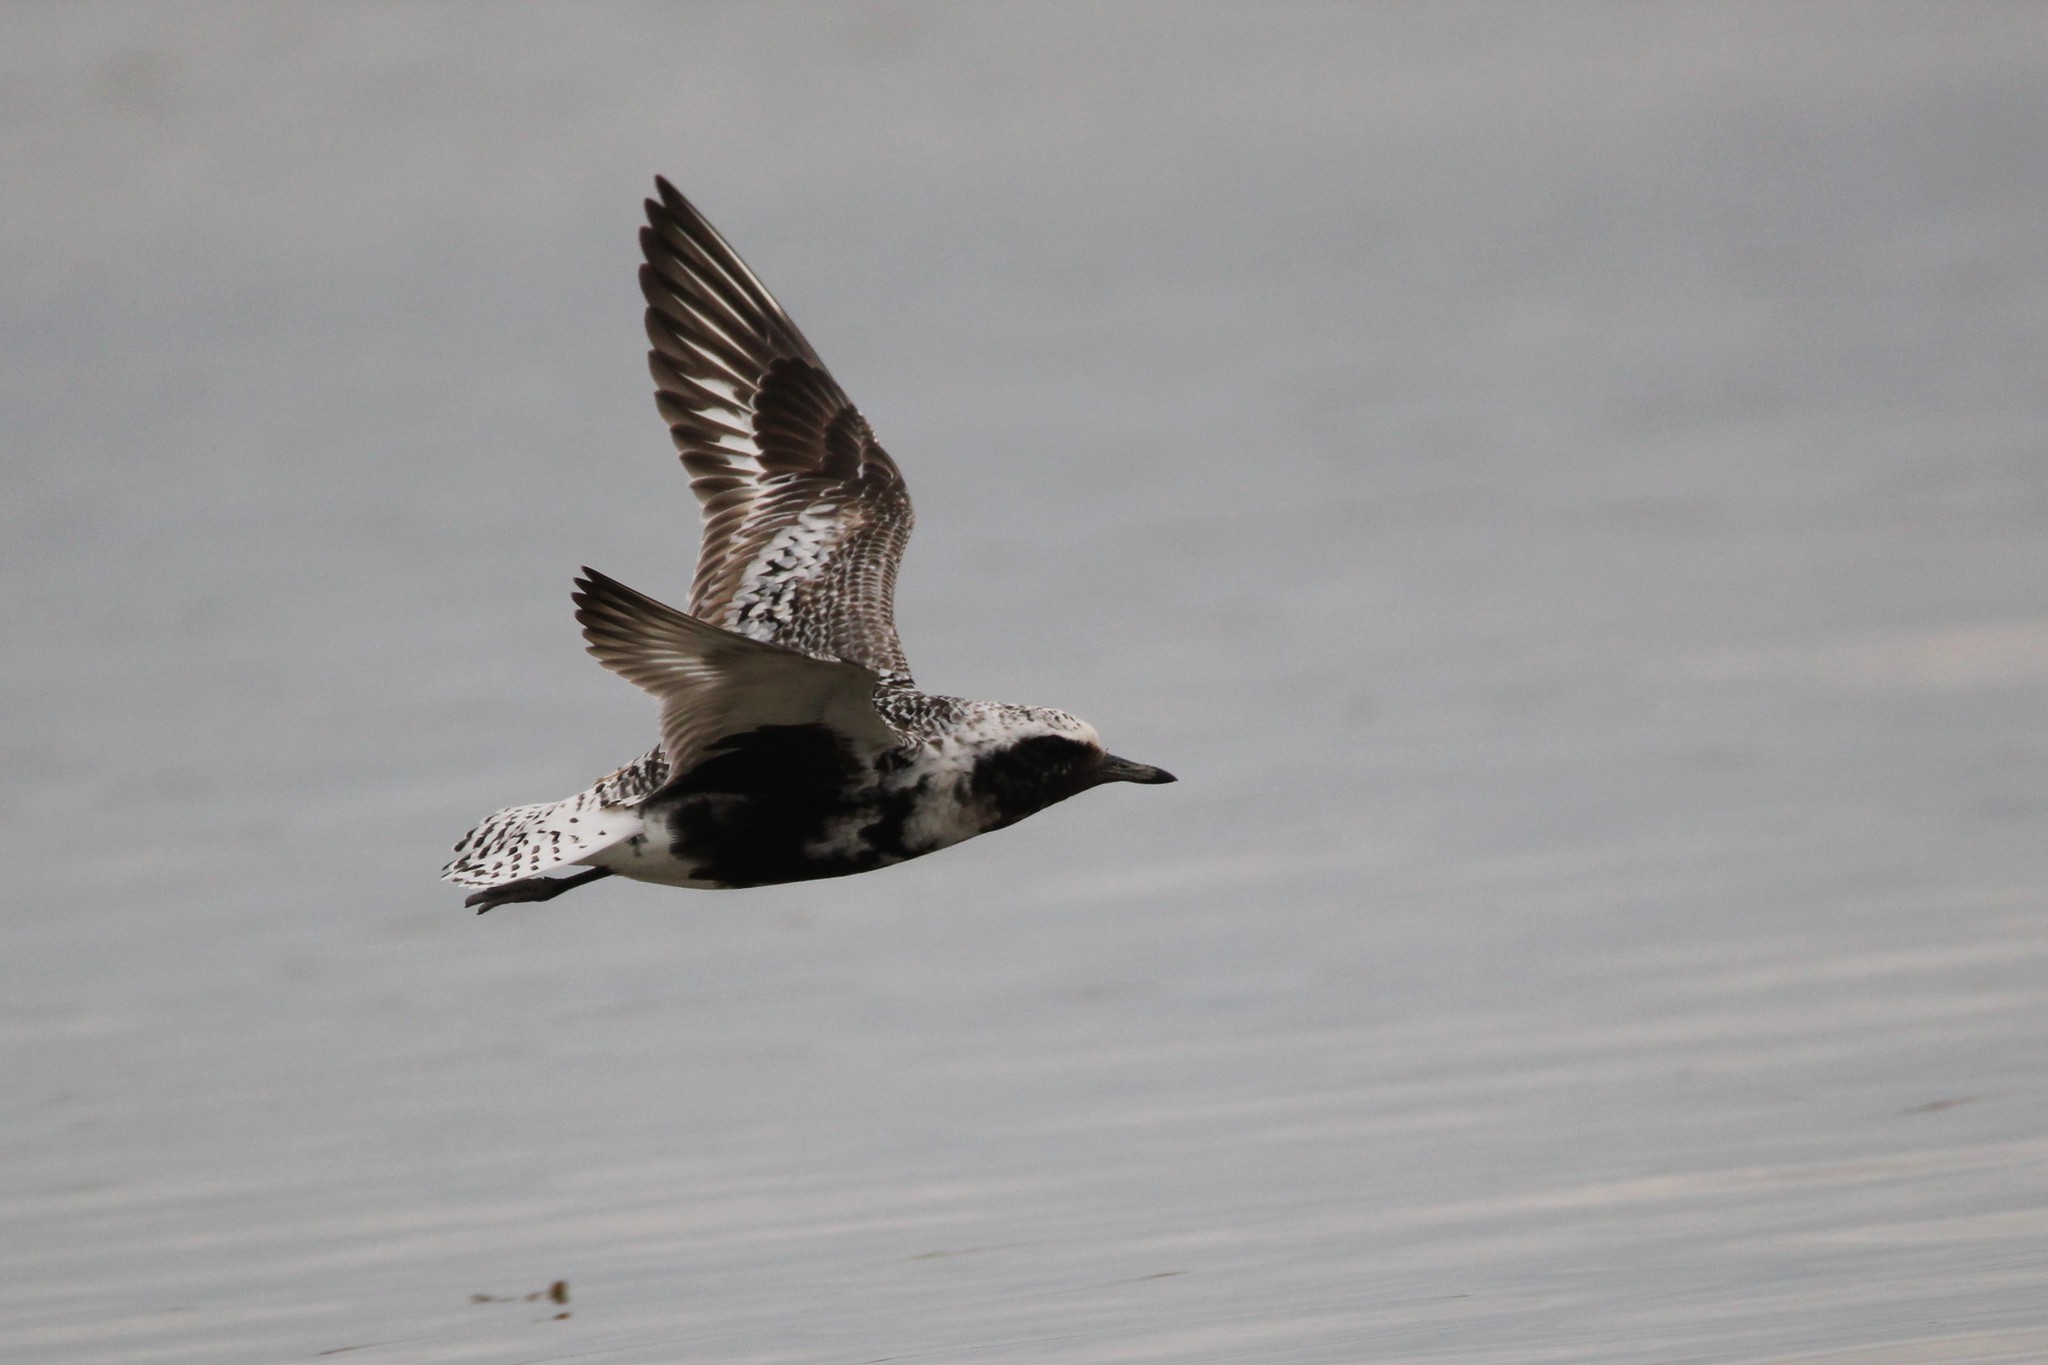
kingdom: Animalia
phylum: Chordata
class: Aves
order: Charadriiformes
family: Charadriidae
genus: Pluvialis
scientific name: Pluvialis squatarola
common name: Grey plover
